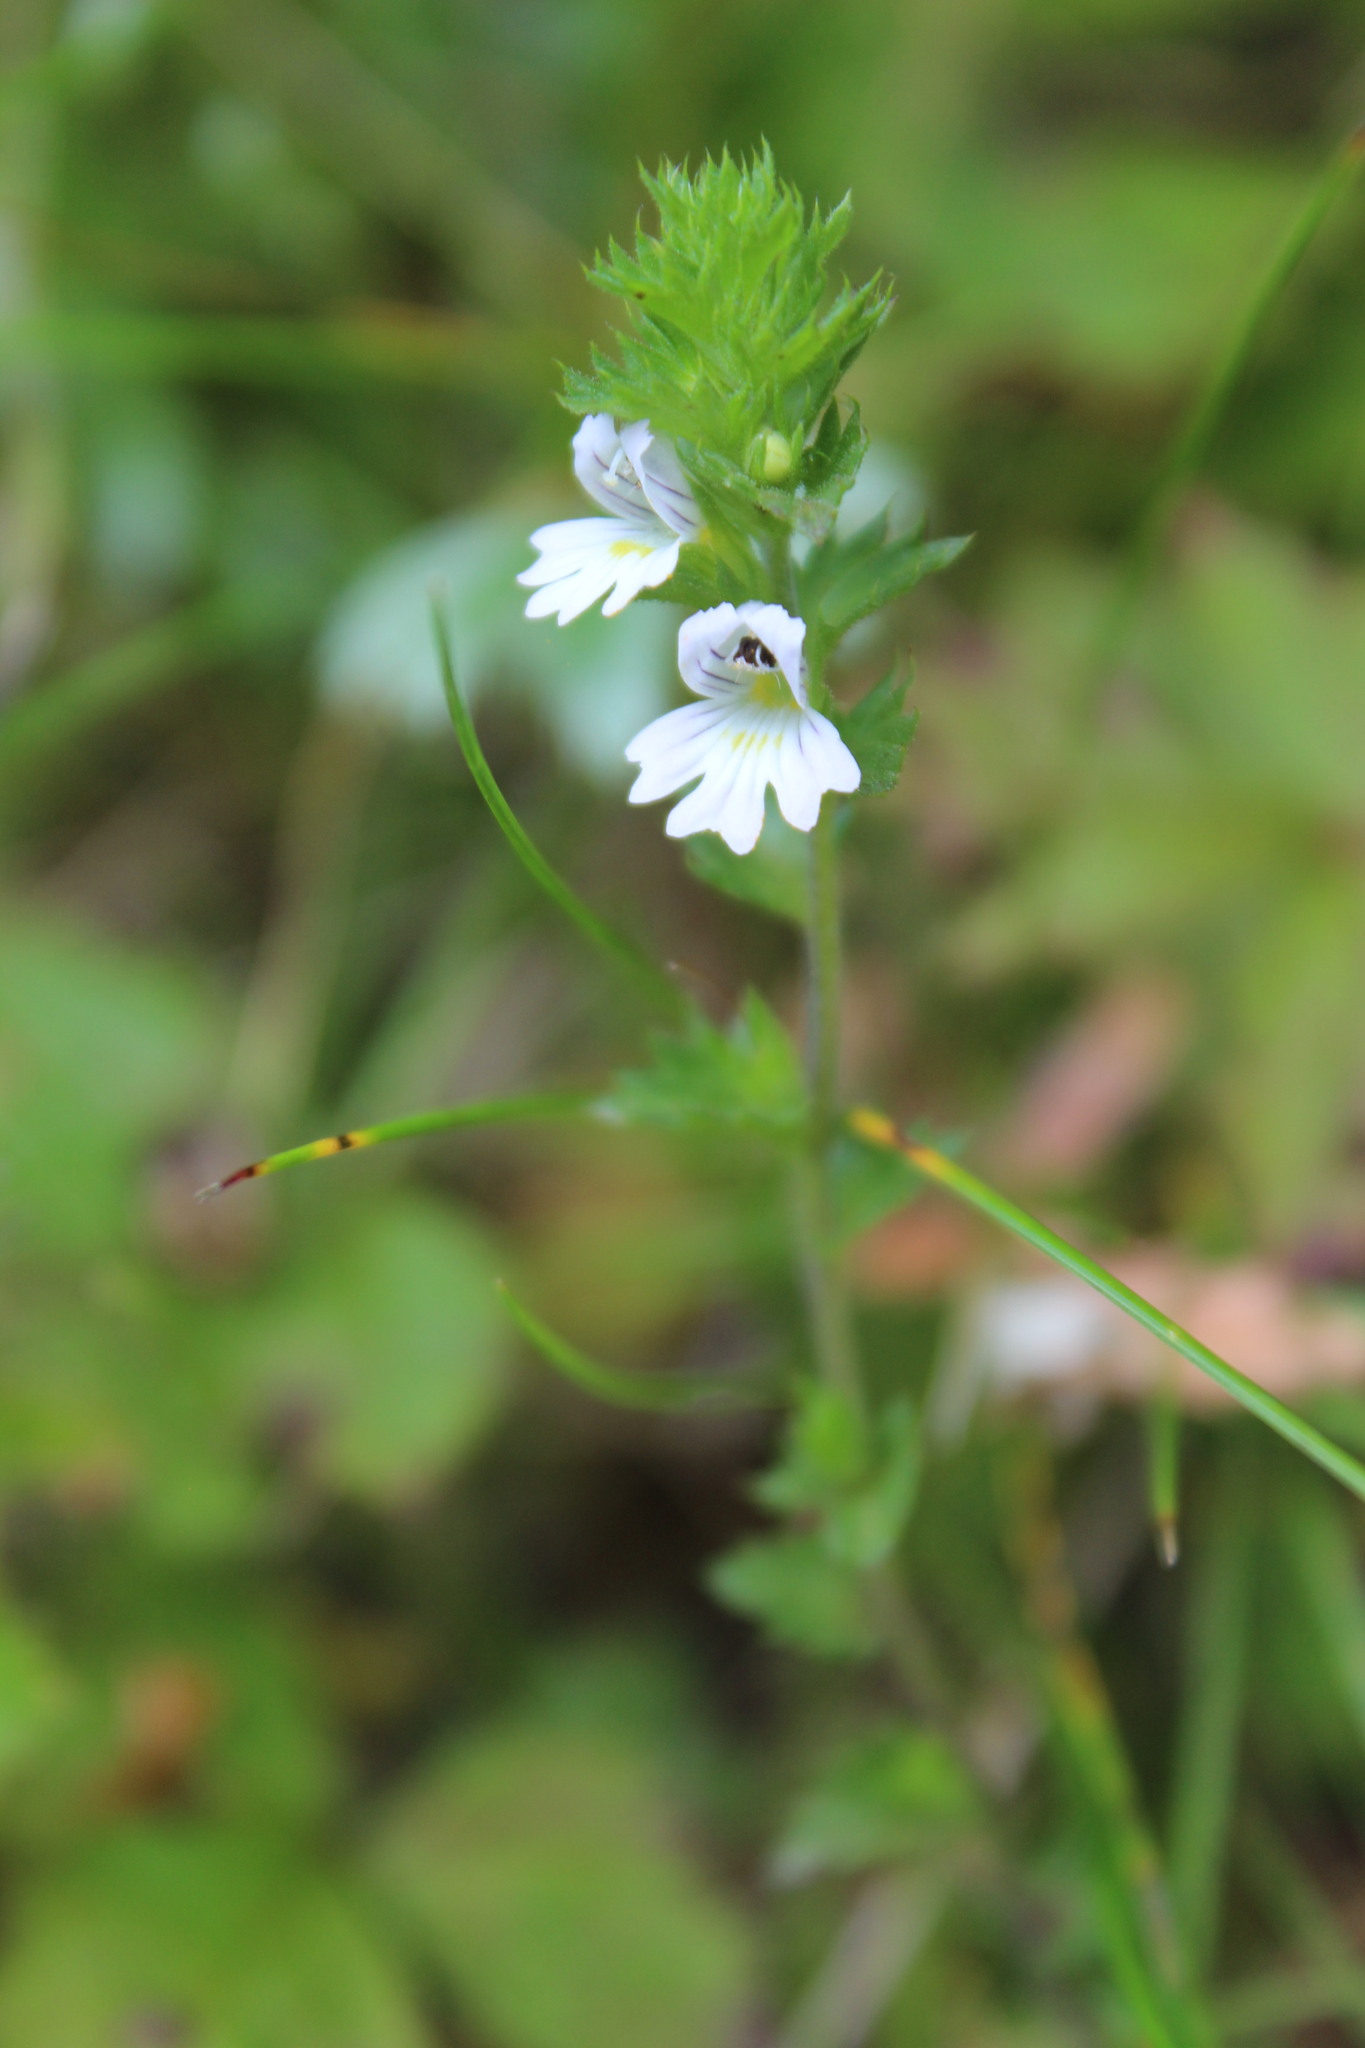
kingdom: Plantae
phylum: Tracheophyta
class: Magnoliopsida
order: Lamiales
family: Orobanchaceae
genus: Euphrasia
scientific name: Euphrasia stricta
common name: Drug eyebright
